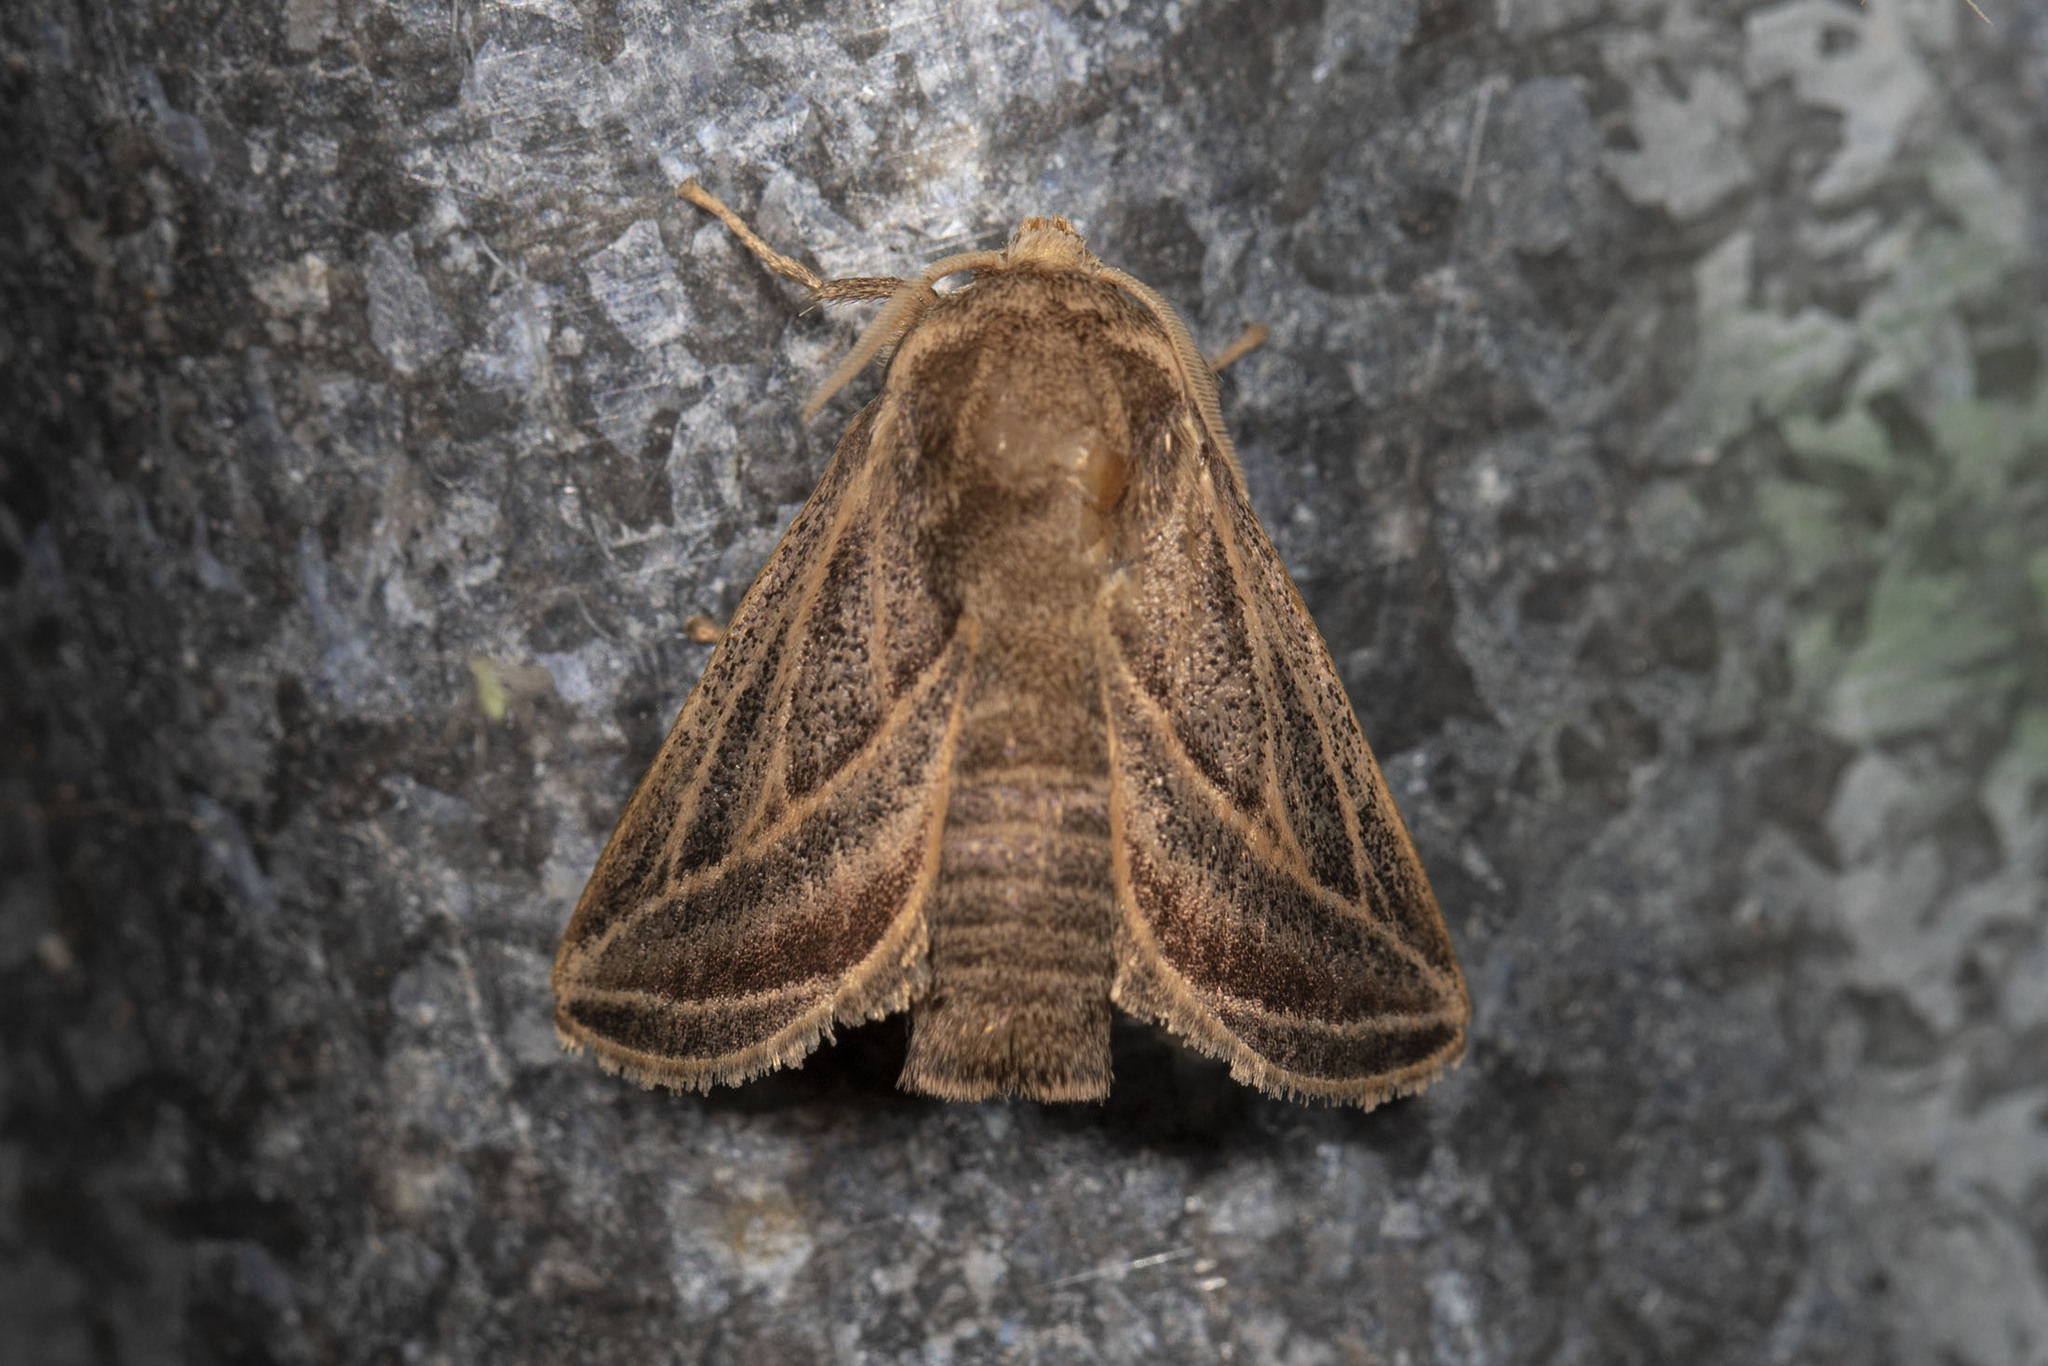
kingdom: Animalia
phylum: Arthropoda
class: Insecta
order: Lepidoptera
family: Limacodidae
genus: Natada
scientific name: Natada fuscodivisa
